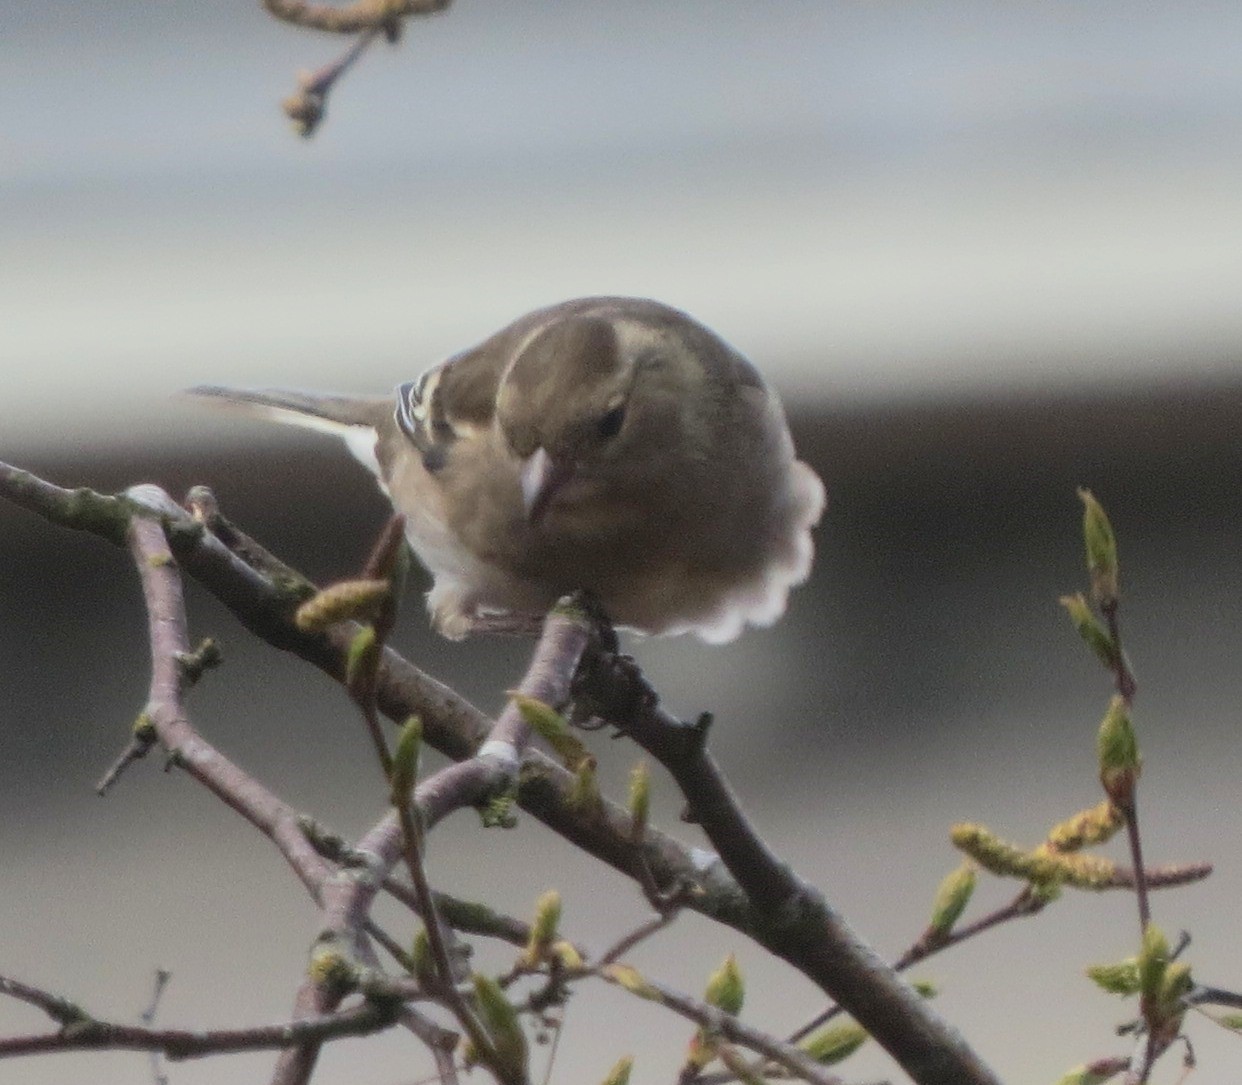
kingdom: Animalia
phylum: Chordata
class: Aves
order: Passeriformes
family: Fringillidae
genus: Fringilla
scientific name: Fringilla coelebs
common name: Common chaffinch
